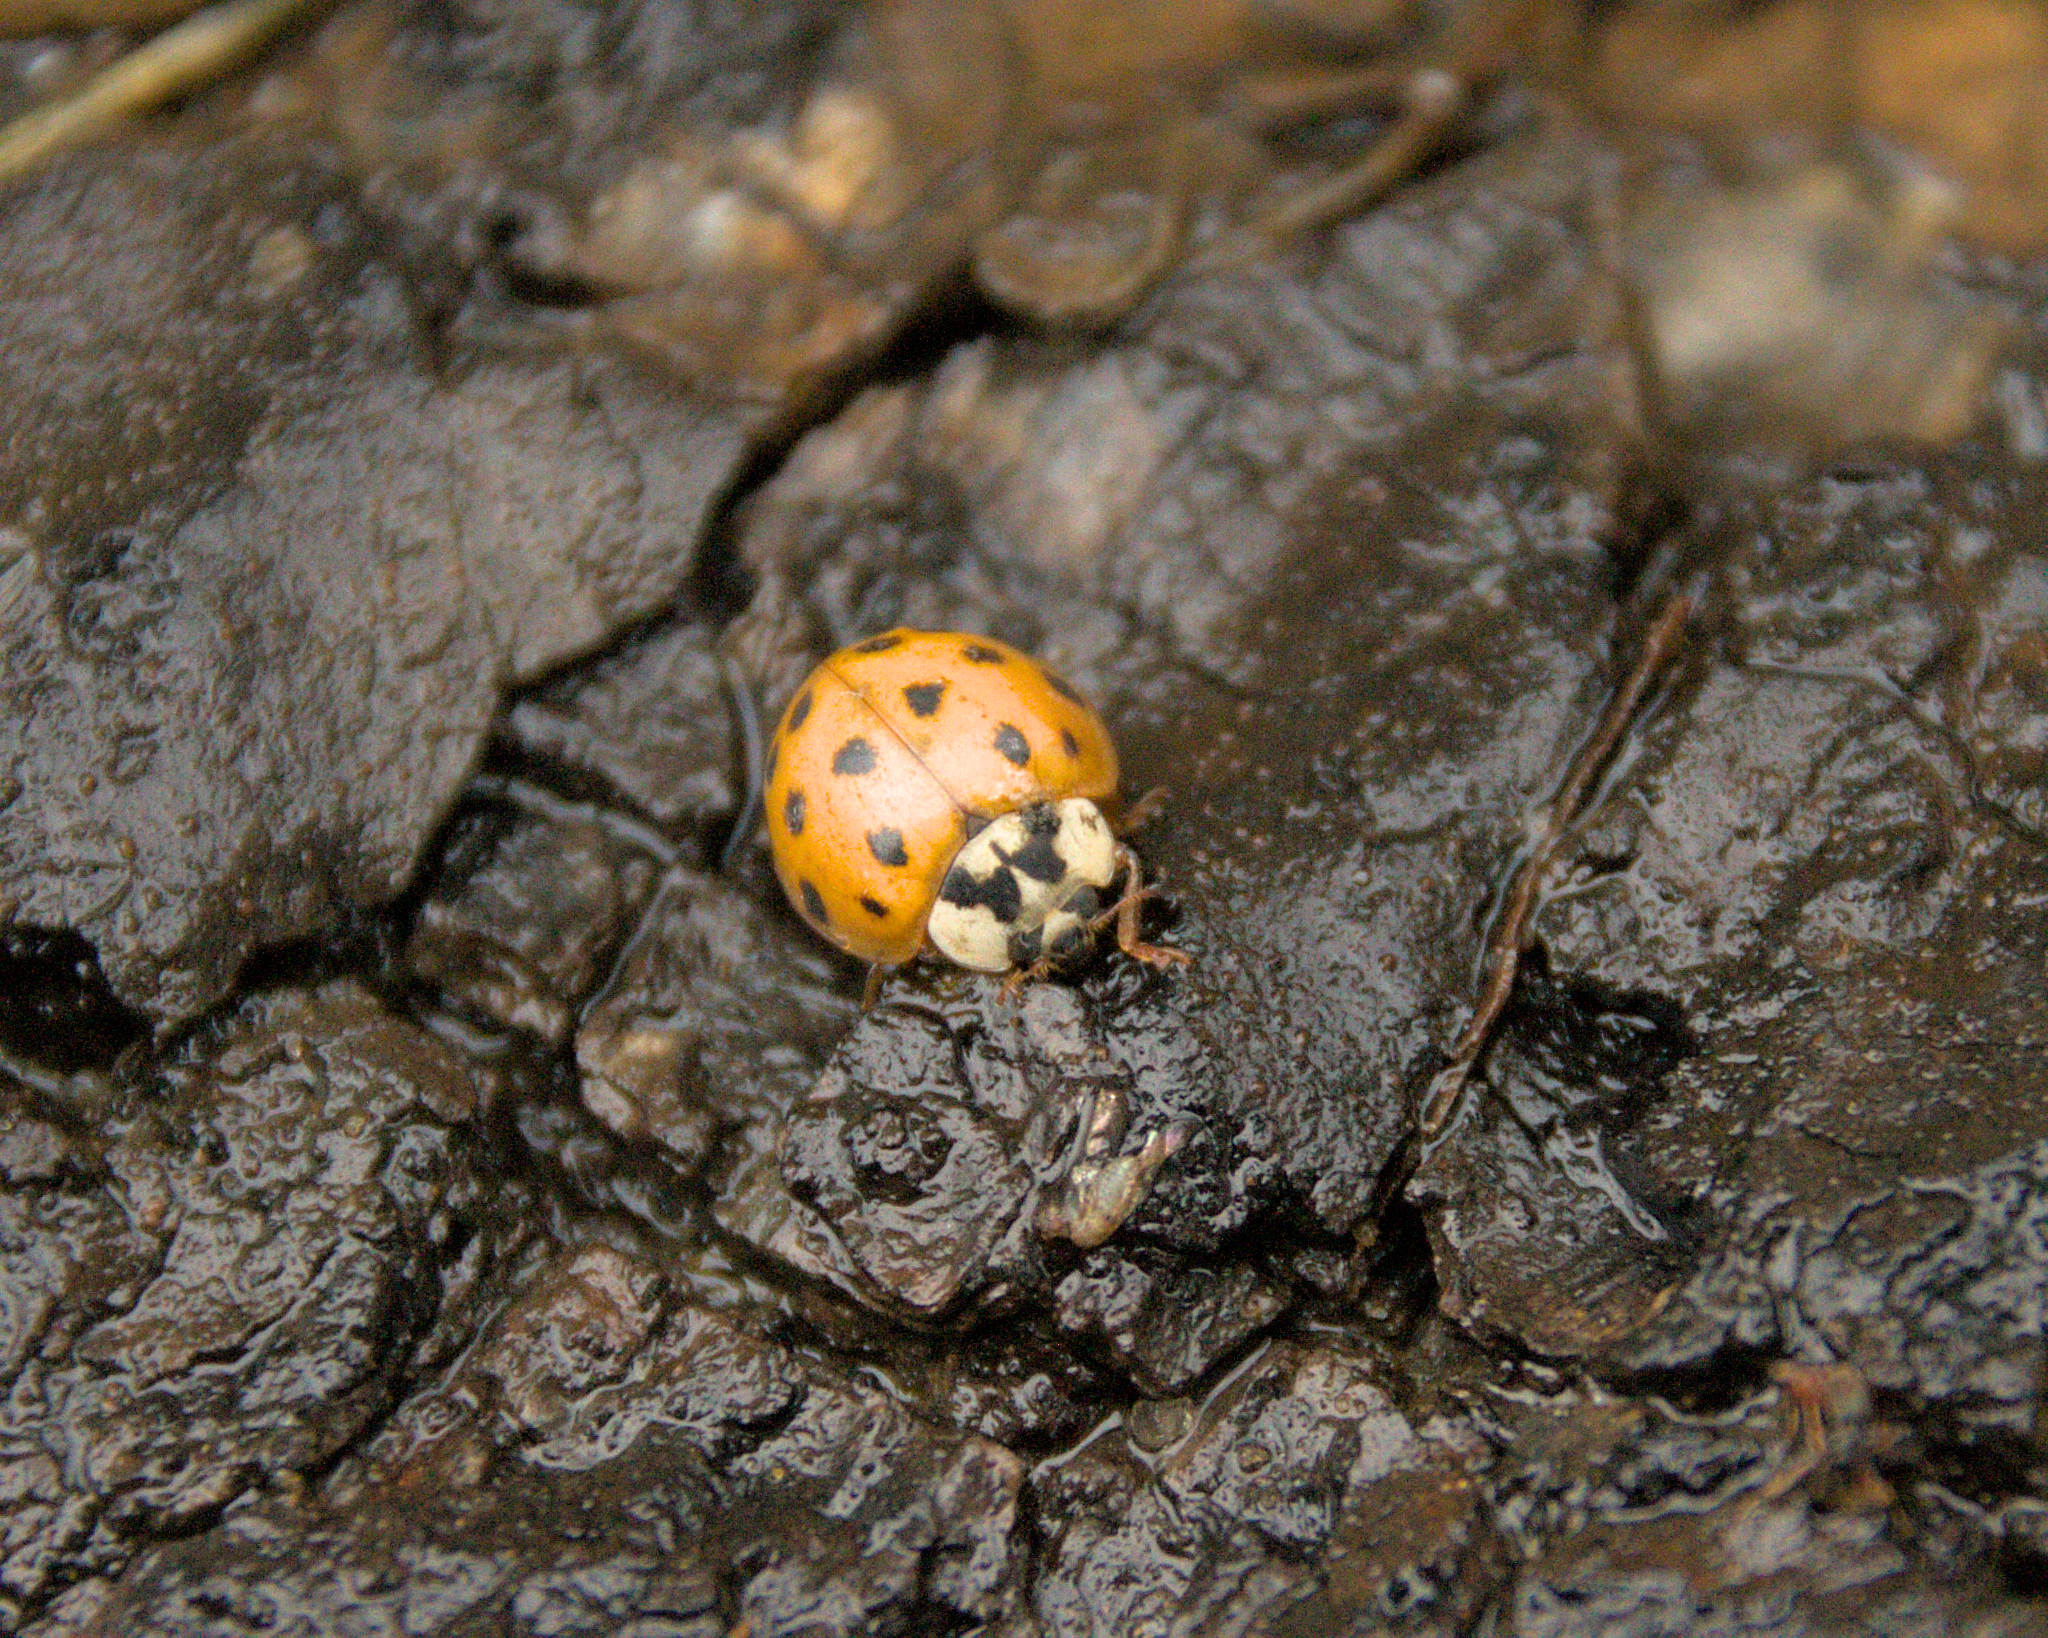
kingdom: Animalia
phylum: Arthropoda
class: Insecta
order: Coleoptera
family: Coccinellidae
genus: Harmonia
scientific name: Harmonia axyridis
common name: Harlequin ladybird
